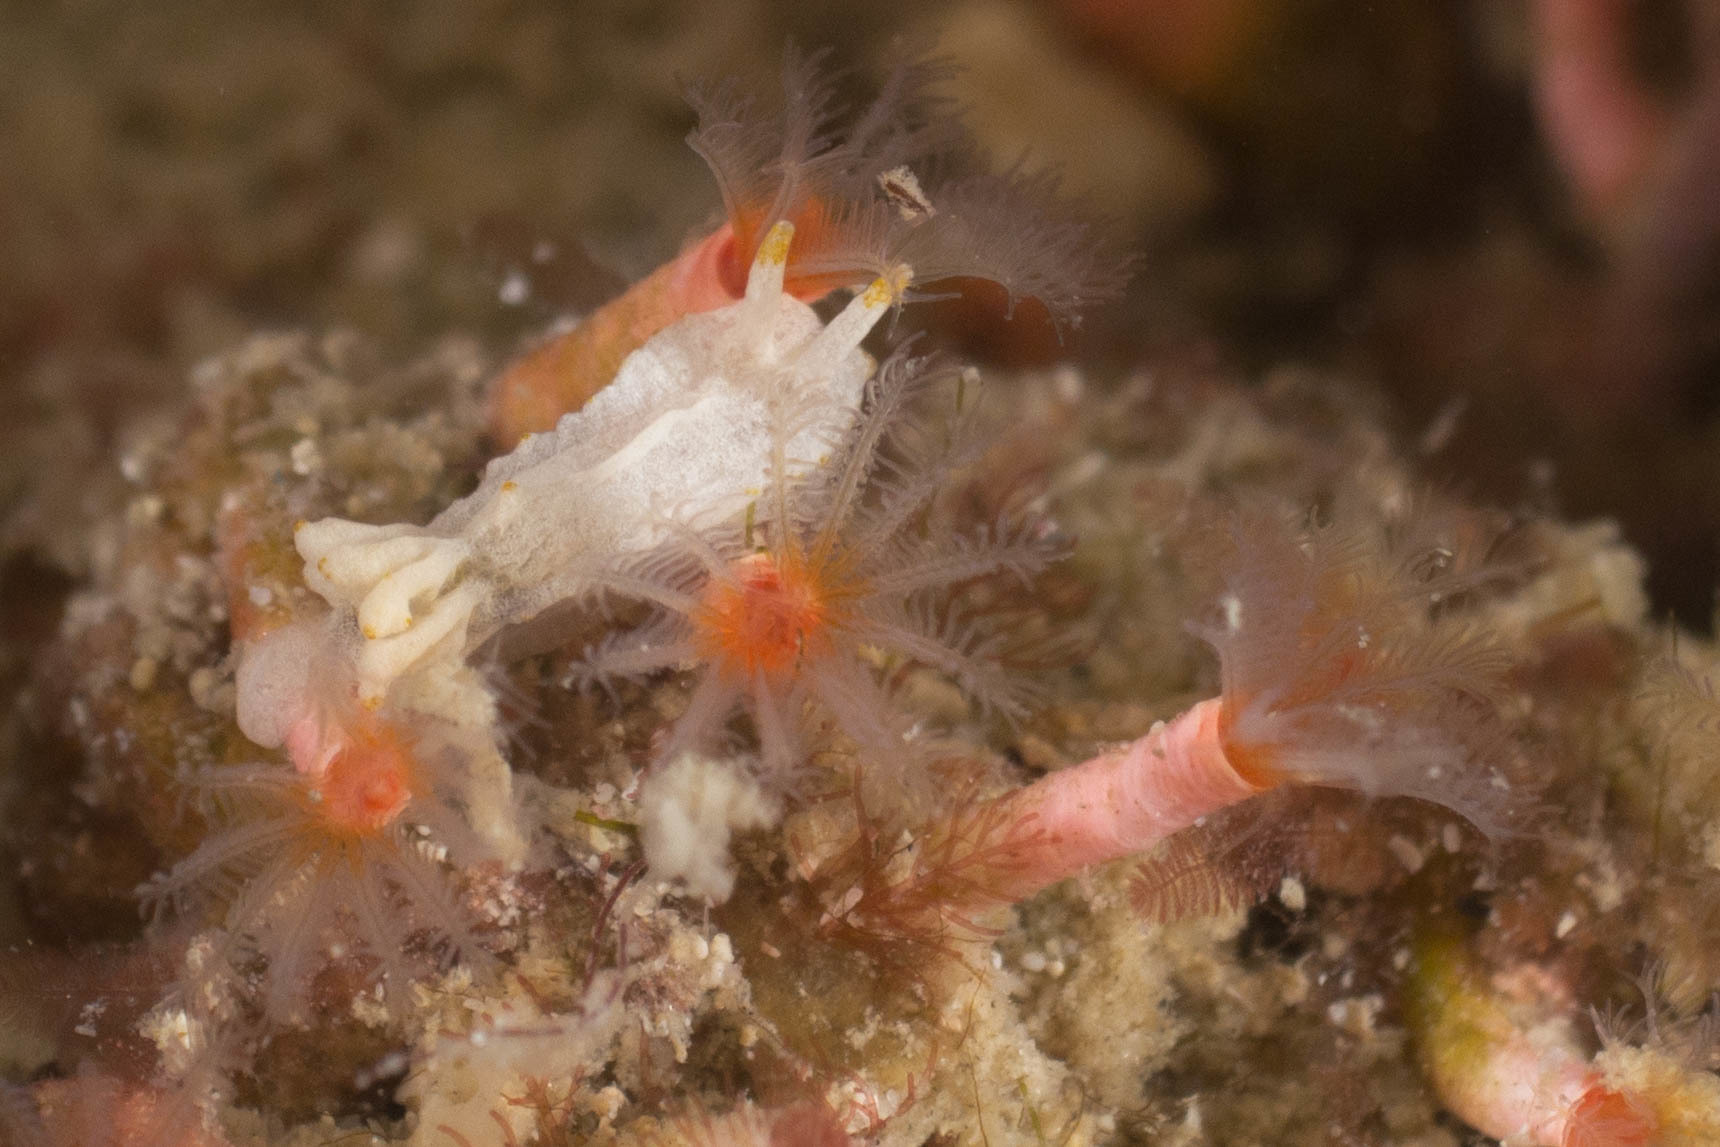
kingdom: Animalia
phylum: Mollusca
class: Gastropoda
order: Nudibranchia
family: Goniodorididae
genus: Goniodoridella
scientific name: Goniodoridella savignyi
